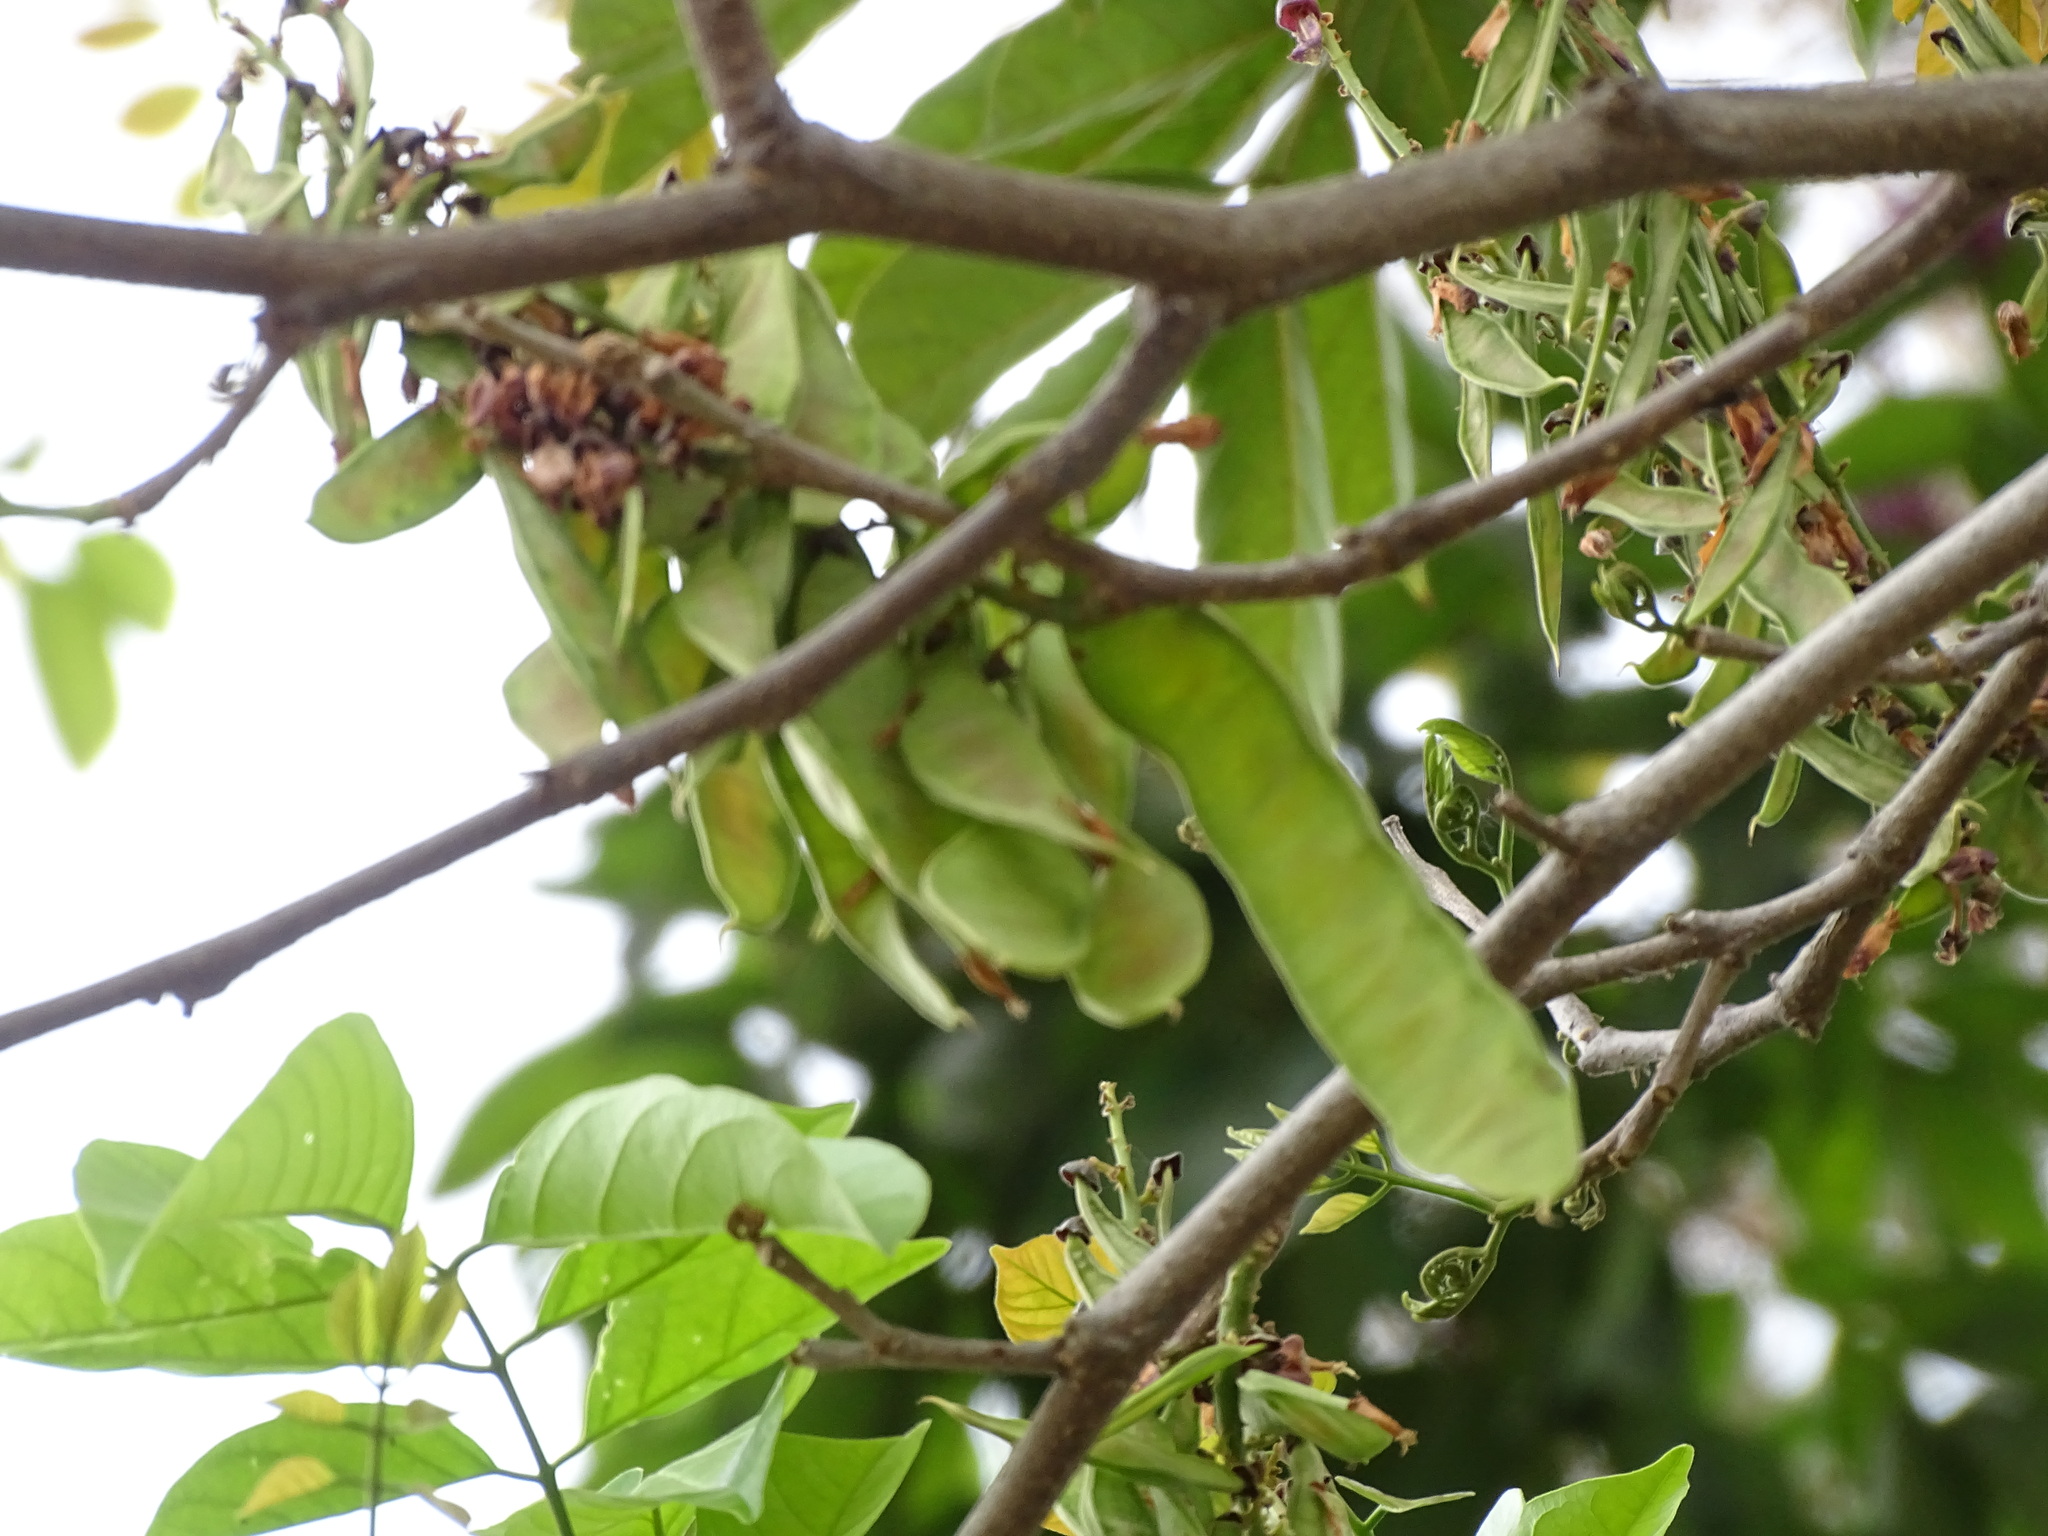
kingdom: Plantae
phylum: Tracheophyta
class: Magnoliopsida
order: Fabales
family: Fabaceae
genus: Lonchocarpus
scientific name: Lonchocarpus guatemalensis
